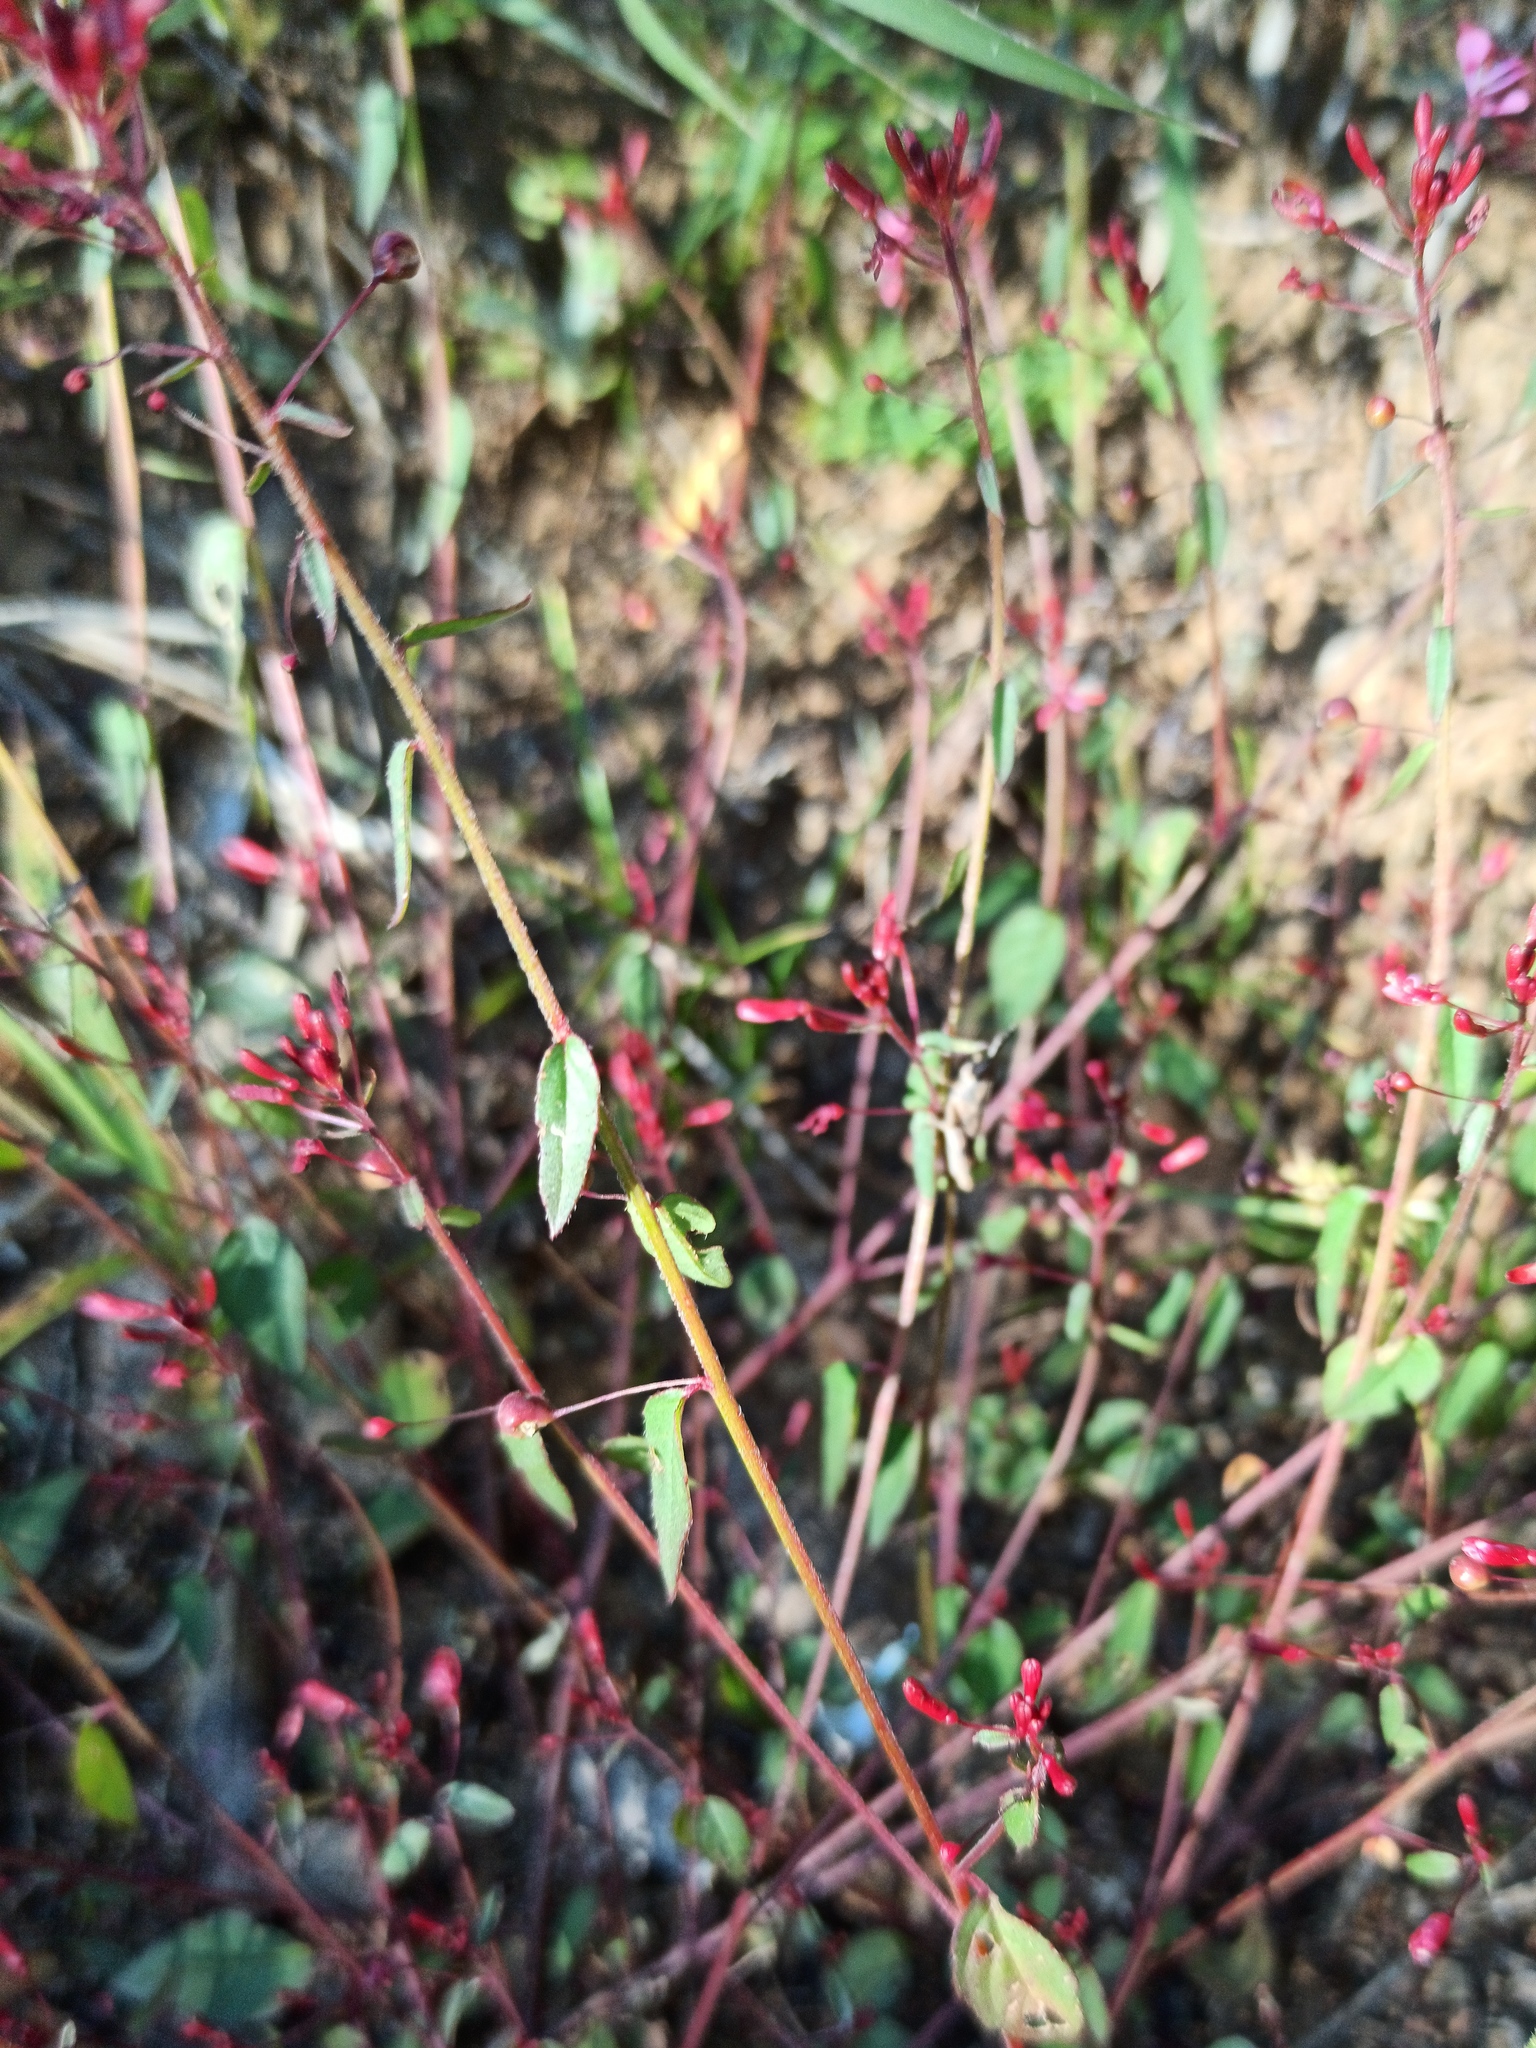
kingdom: Plantae
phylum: Tracheophyta
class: Magnoliopsida
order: Myrtales
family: Onagraceae
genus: Lopezia
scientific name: Lopezia racemosa
